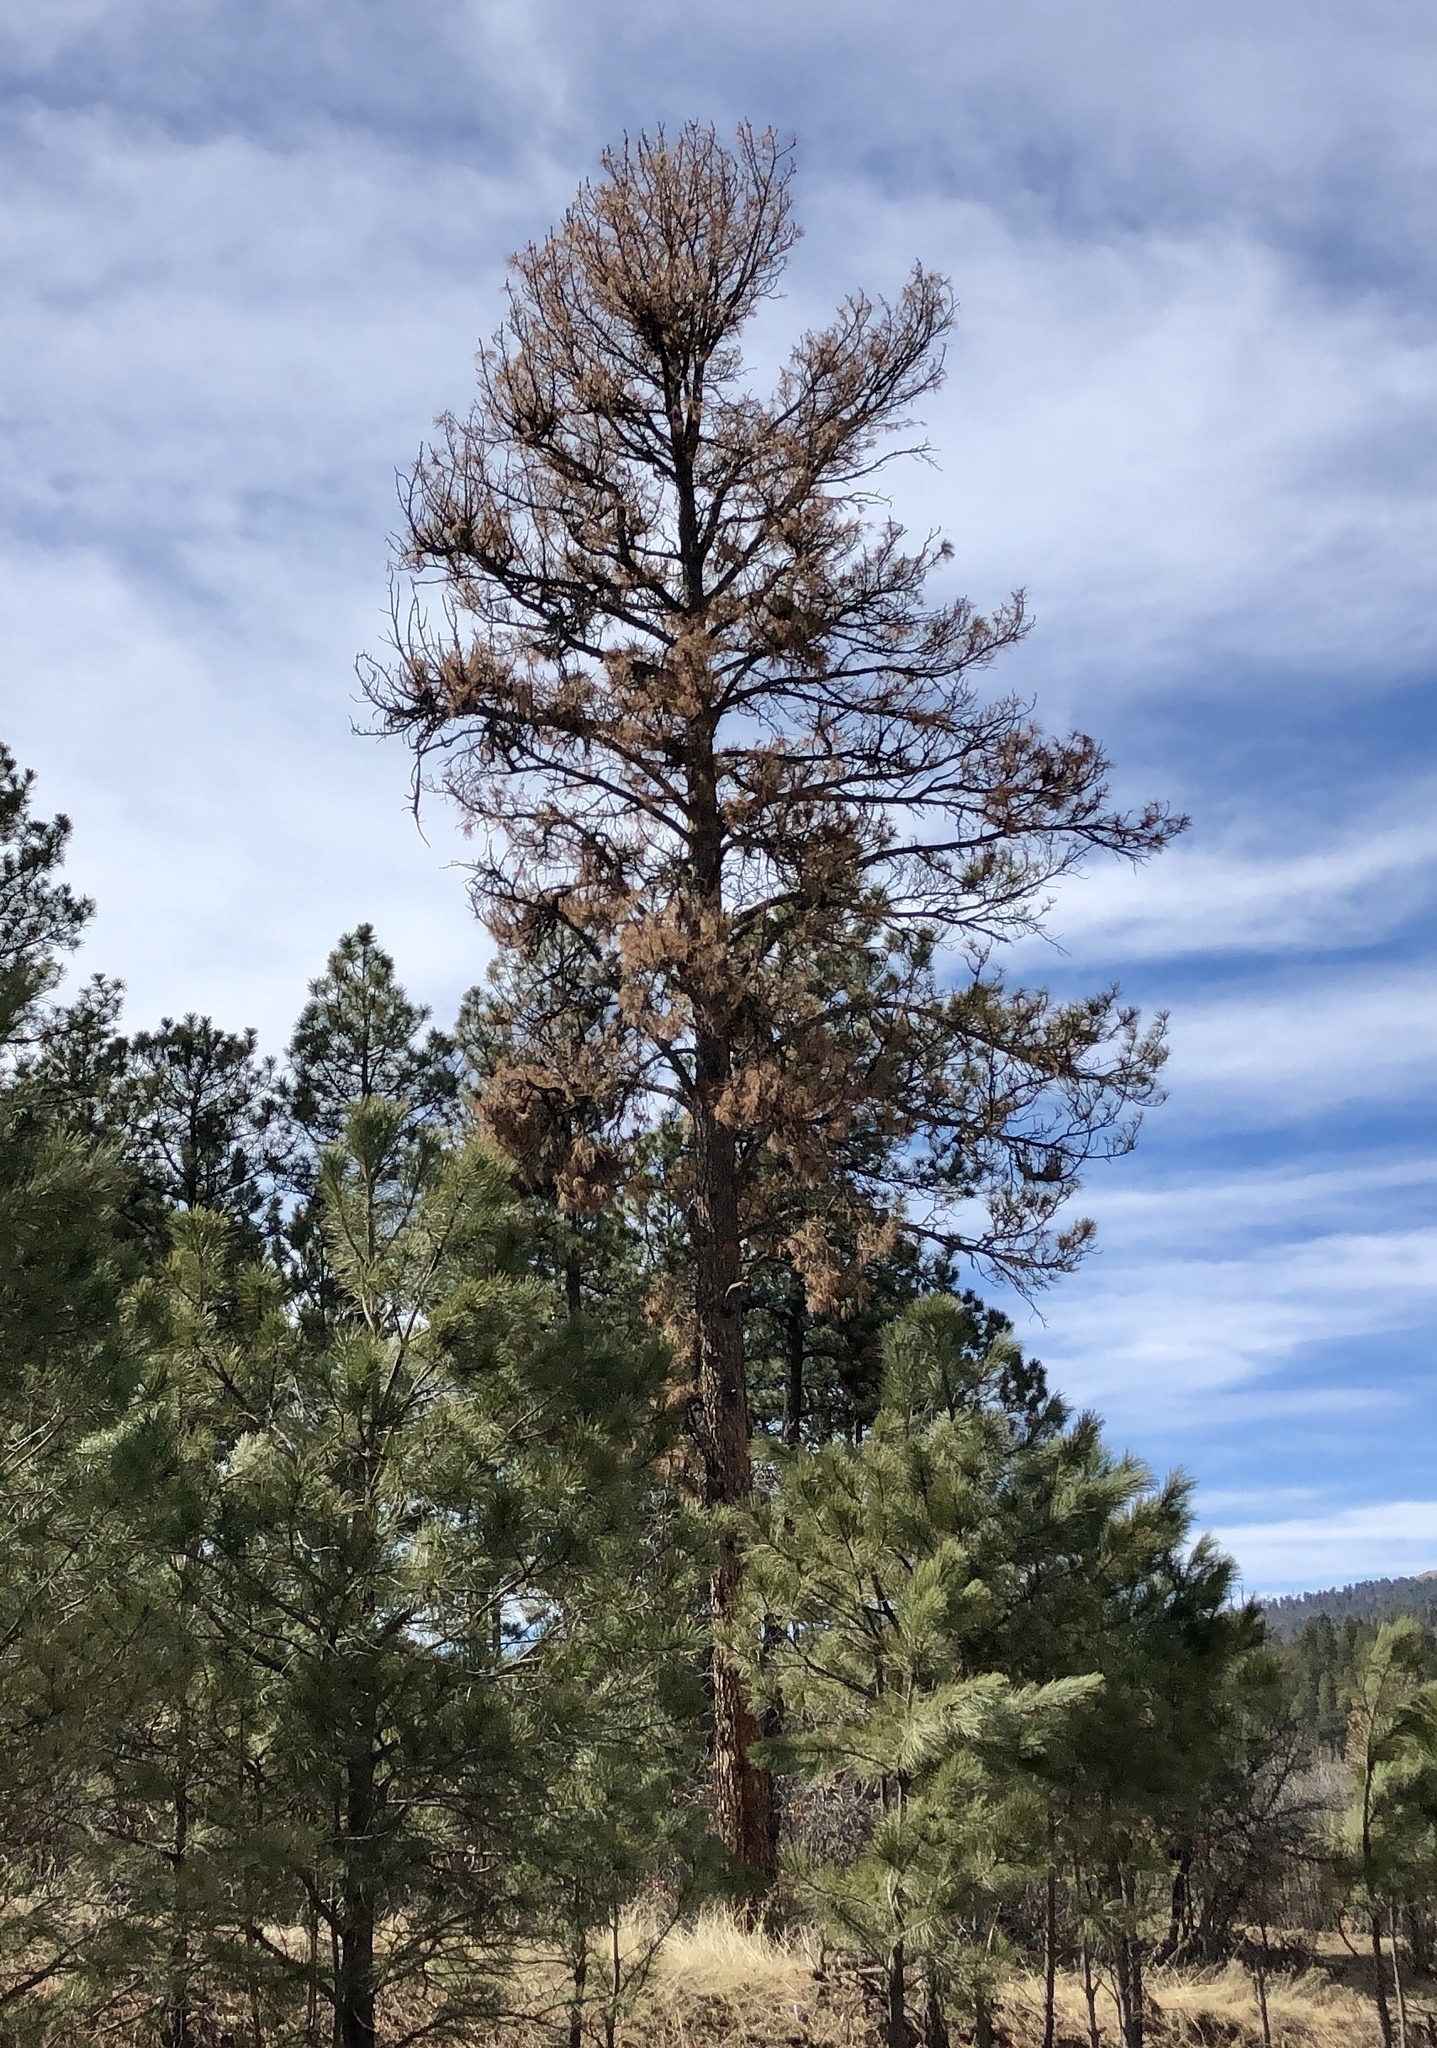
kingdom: Plantae
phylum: Tracheophyta
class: Pinopsida
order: Pinales
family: Pinaceae
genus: Pinus
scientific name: Pinus ponderosa
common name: Western yellow-pine
